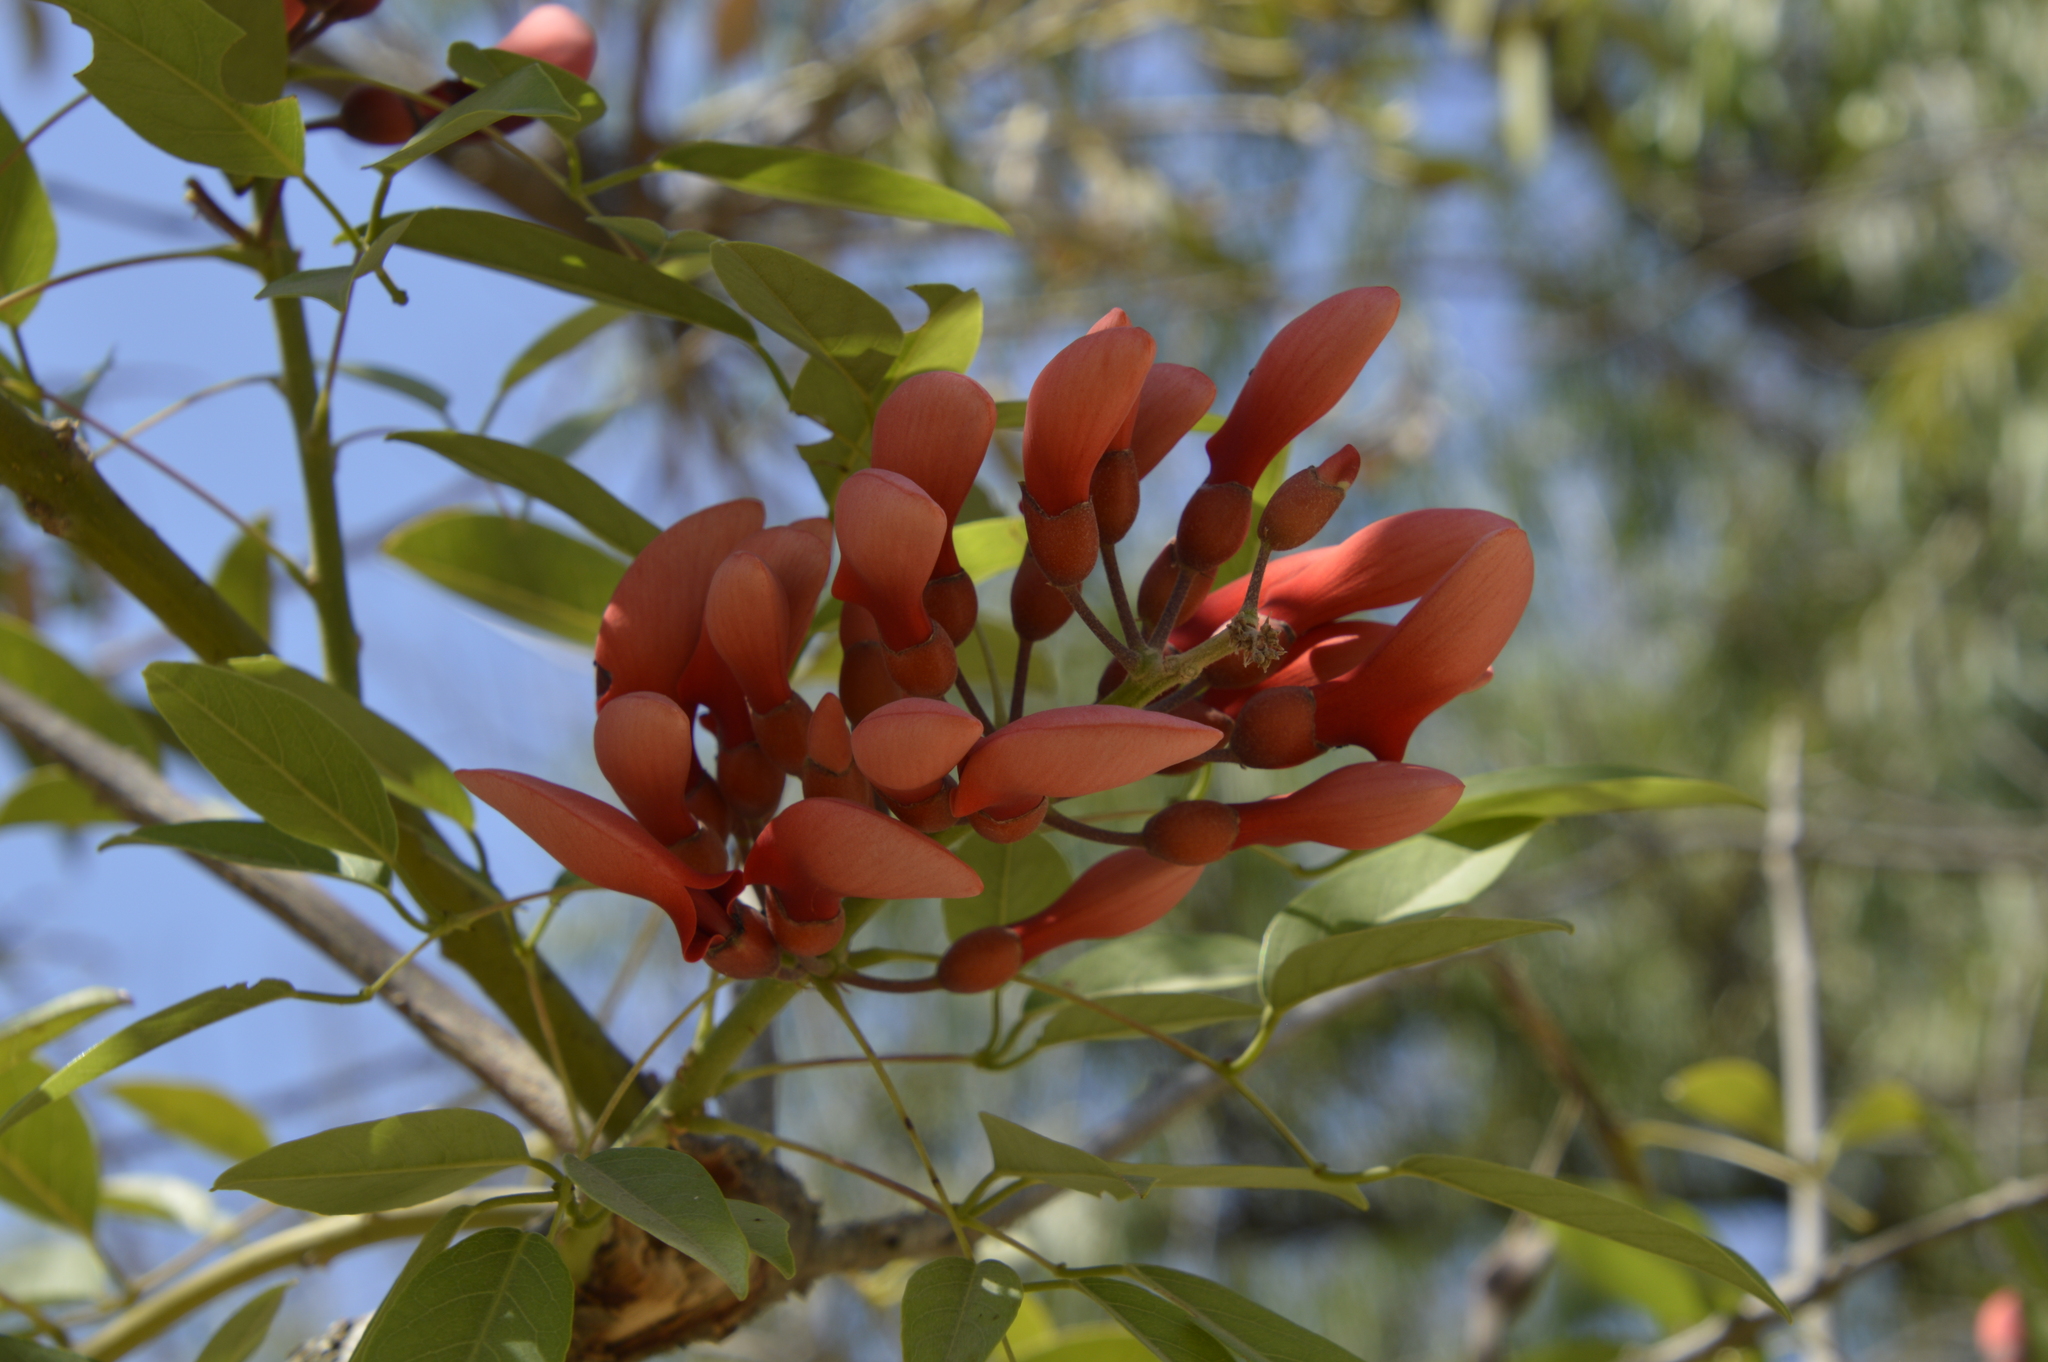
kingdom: Plantae
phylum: Tracheophyta
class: Magnoliopsida
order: Fabales
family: Fabaceae
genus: Erythrina
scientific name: Erythrina crista-galli
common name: Cockspur coral tree
